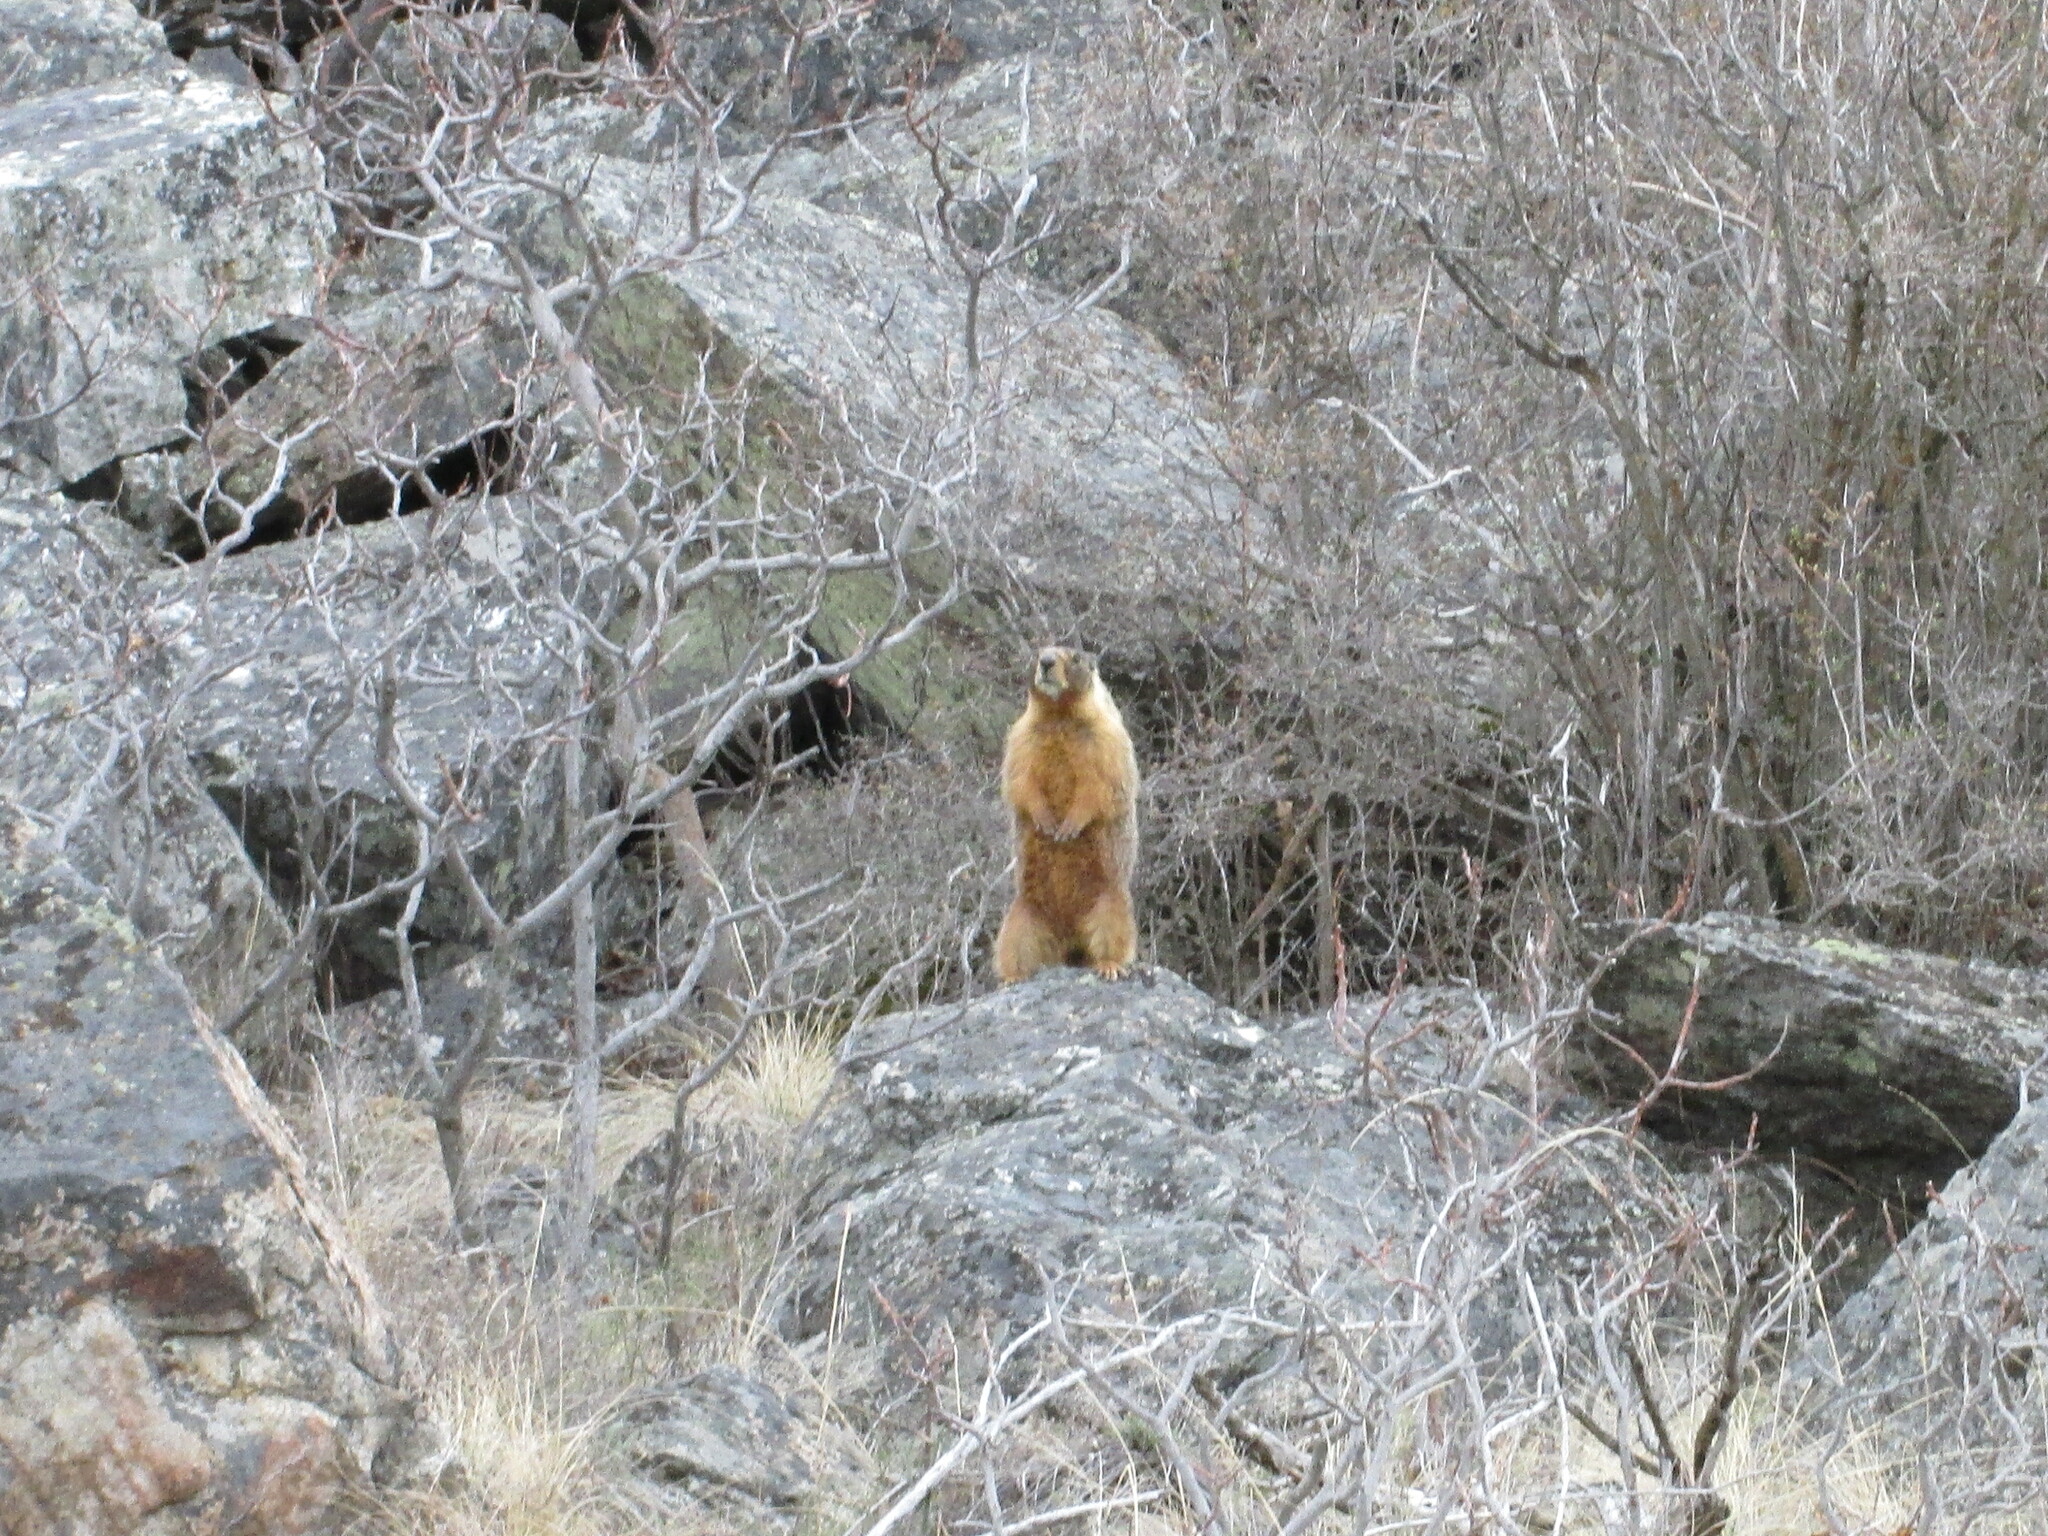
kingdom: Animalia
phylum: Chordata
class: Mammalia
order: Rodentia
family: Sciuridae
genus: Marmota
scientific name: Marmota flaviventris
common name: Yellow-bellied marmot
